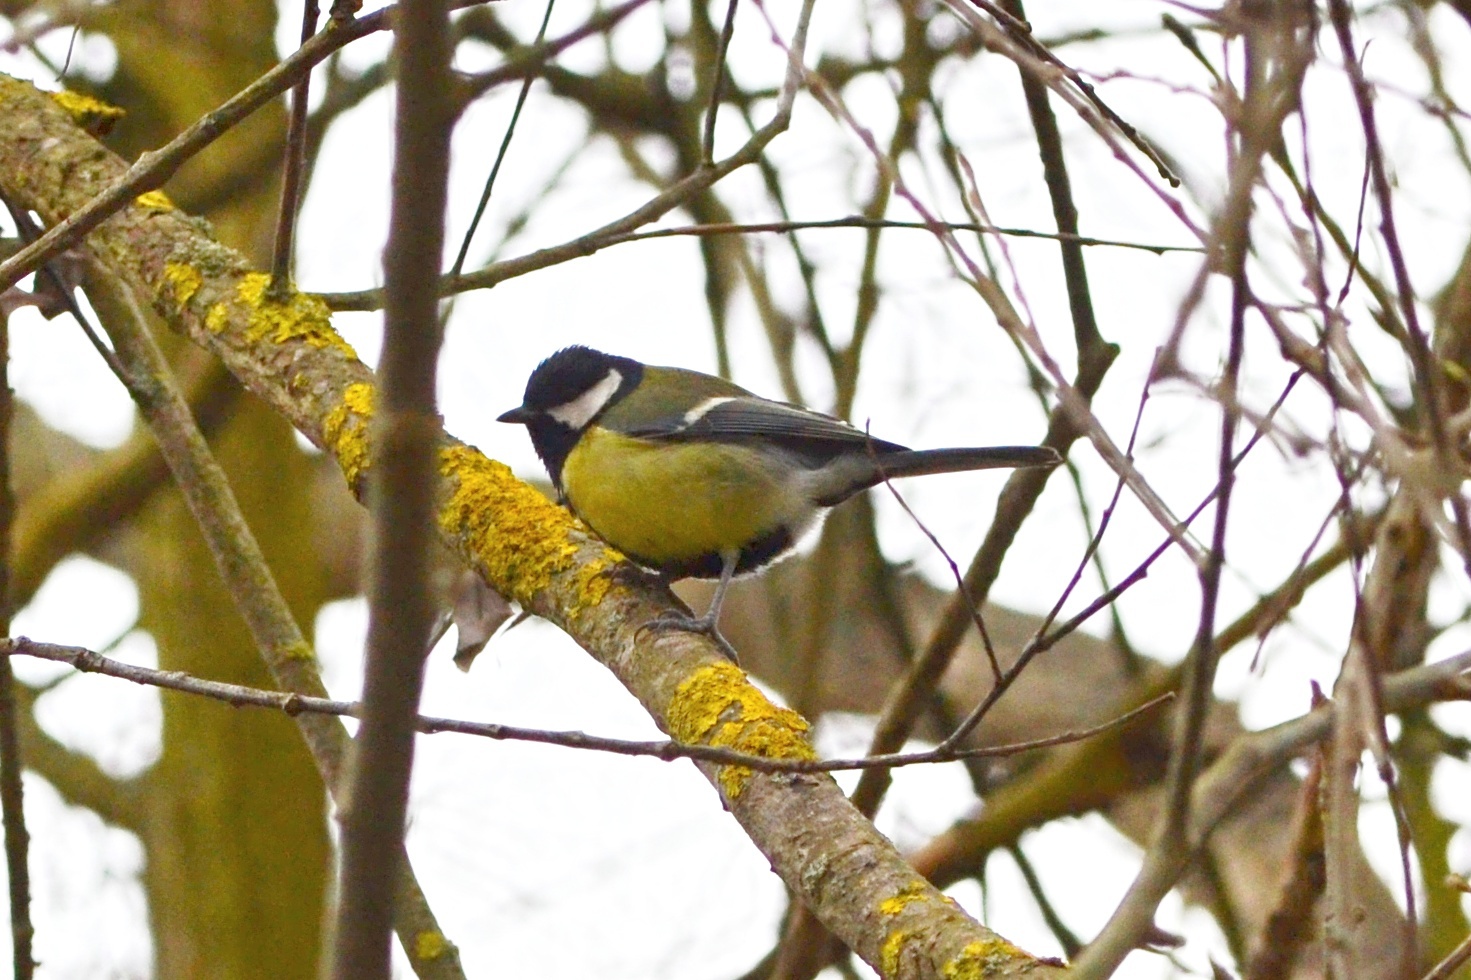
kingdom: Animalia
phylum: Chordata
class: Aves
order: Passeriformes
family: Paridae
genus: Parus
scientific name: Parus major
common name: Great tit
